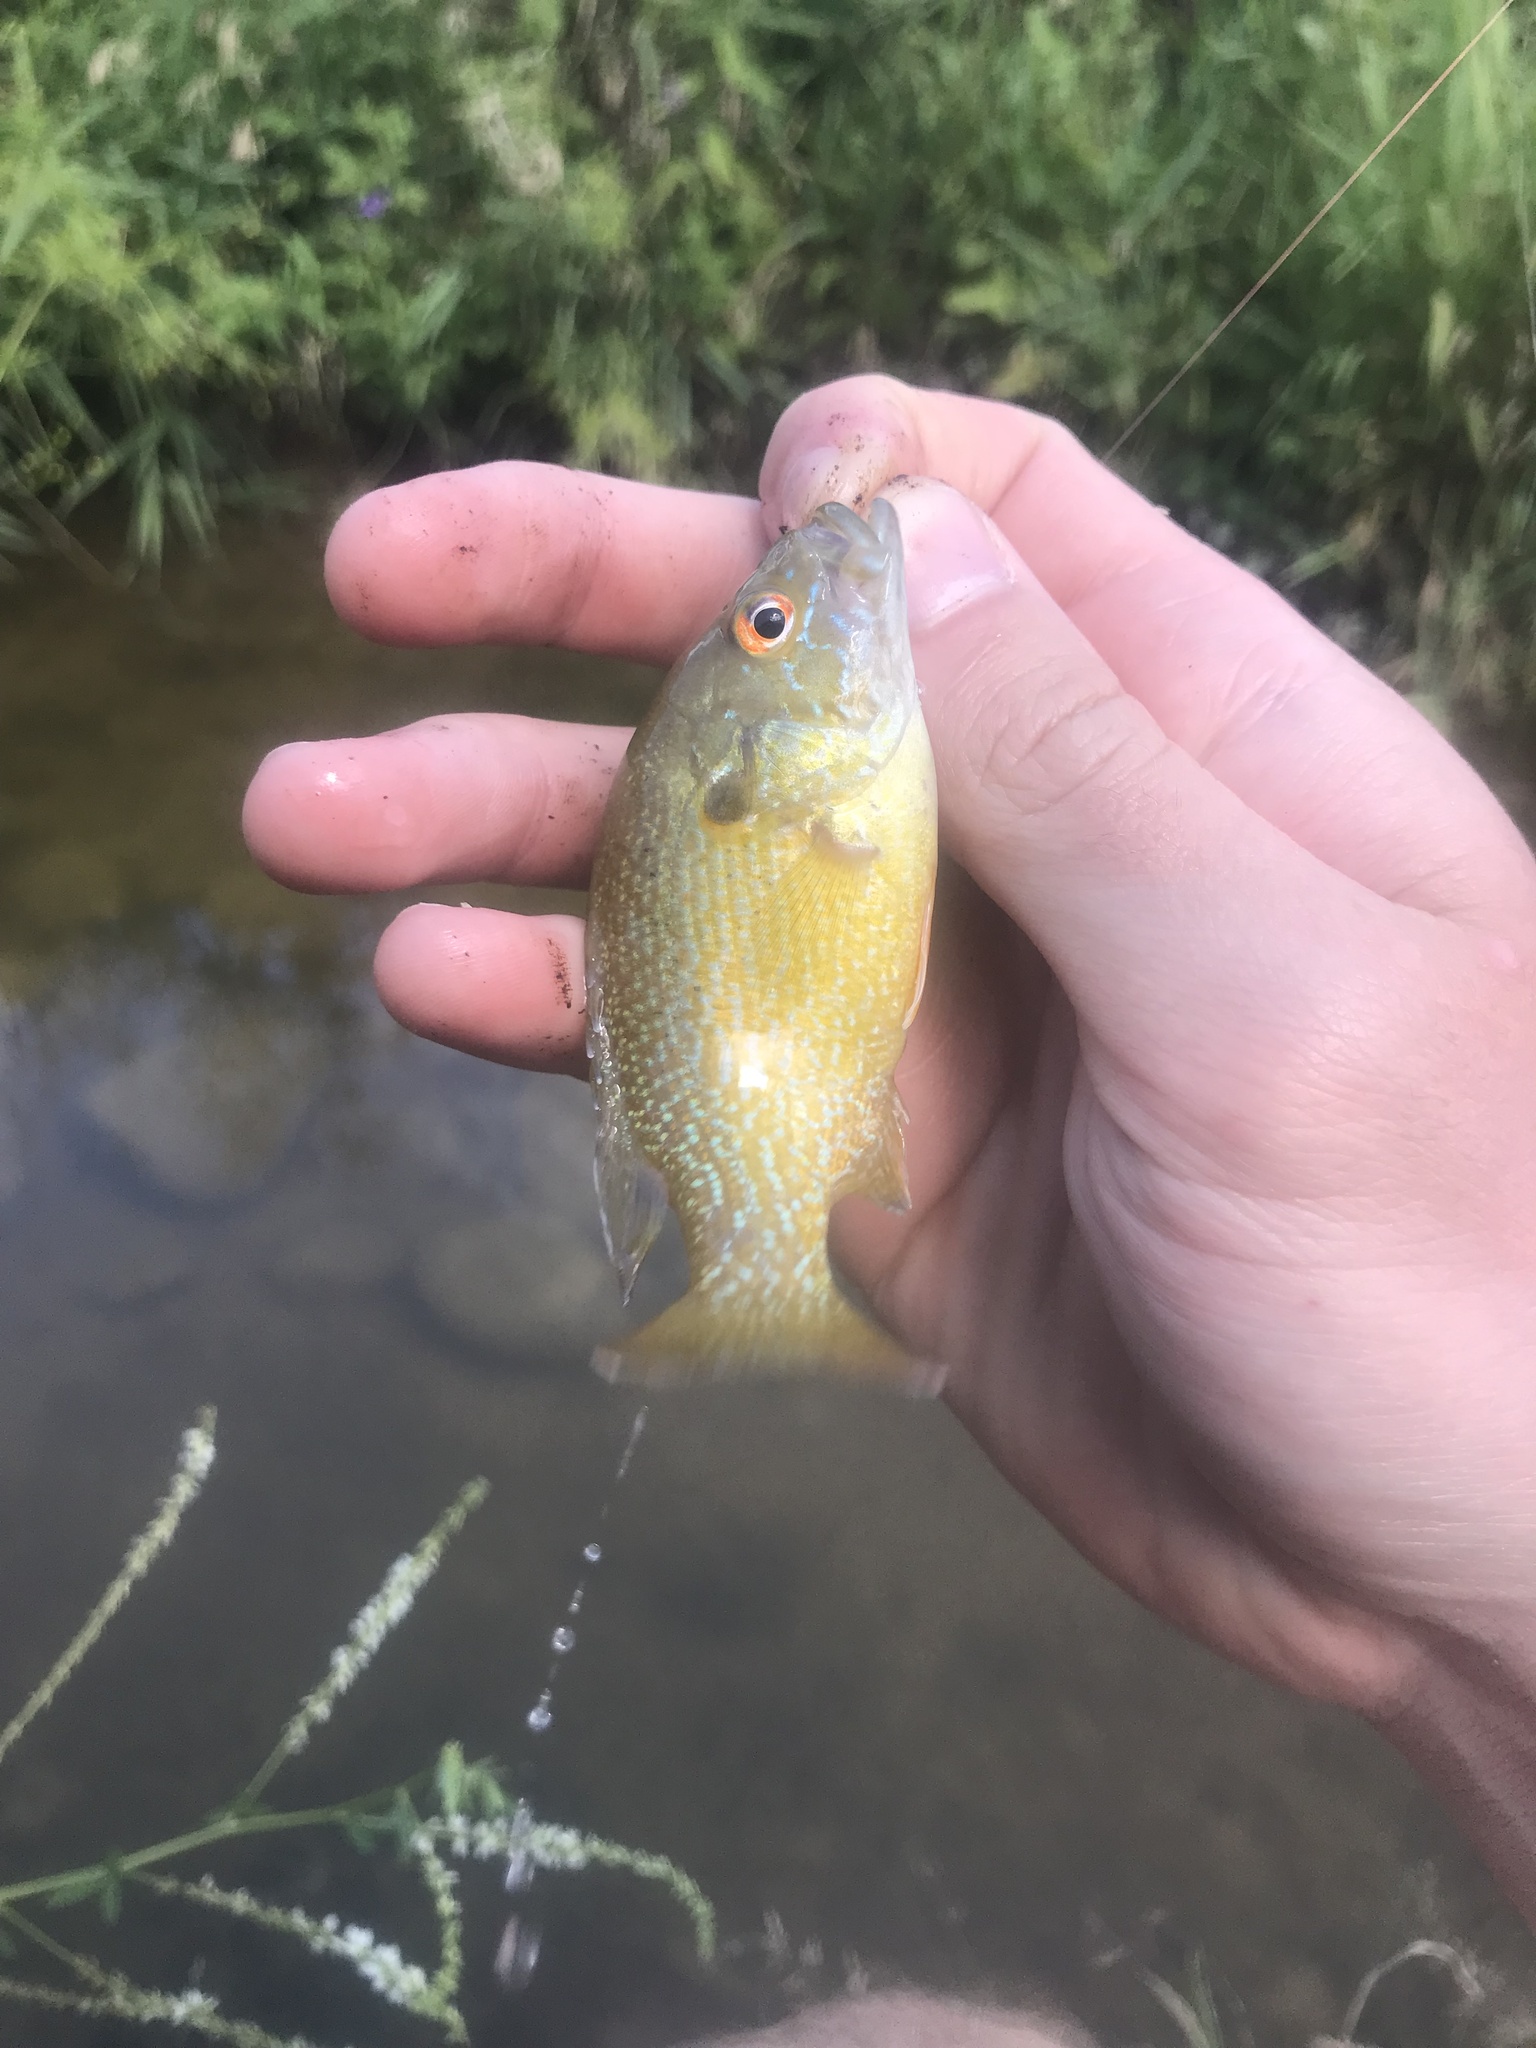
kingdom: Animalia
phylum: Chordata
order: Perciformes
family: Centrarchidae
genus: Lepomis
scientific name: Lepomis cyanellus
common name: Green sunfish
